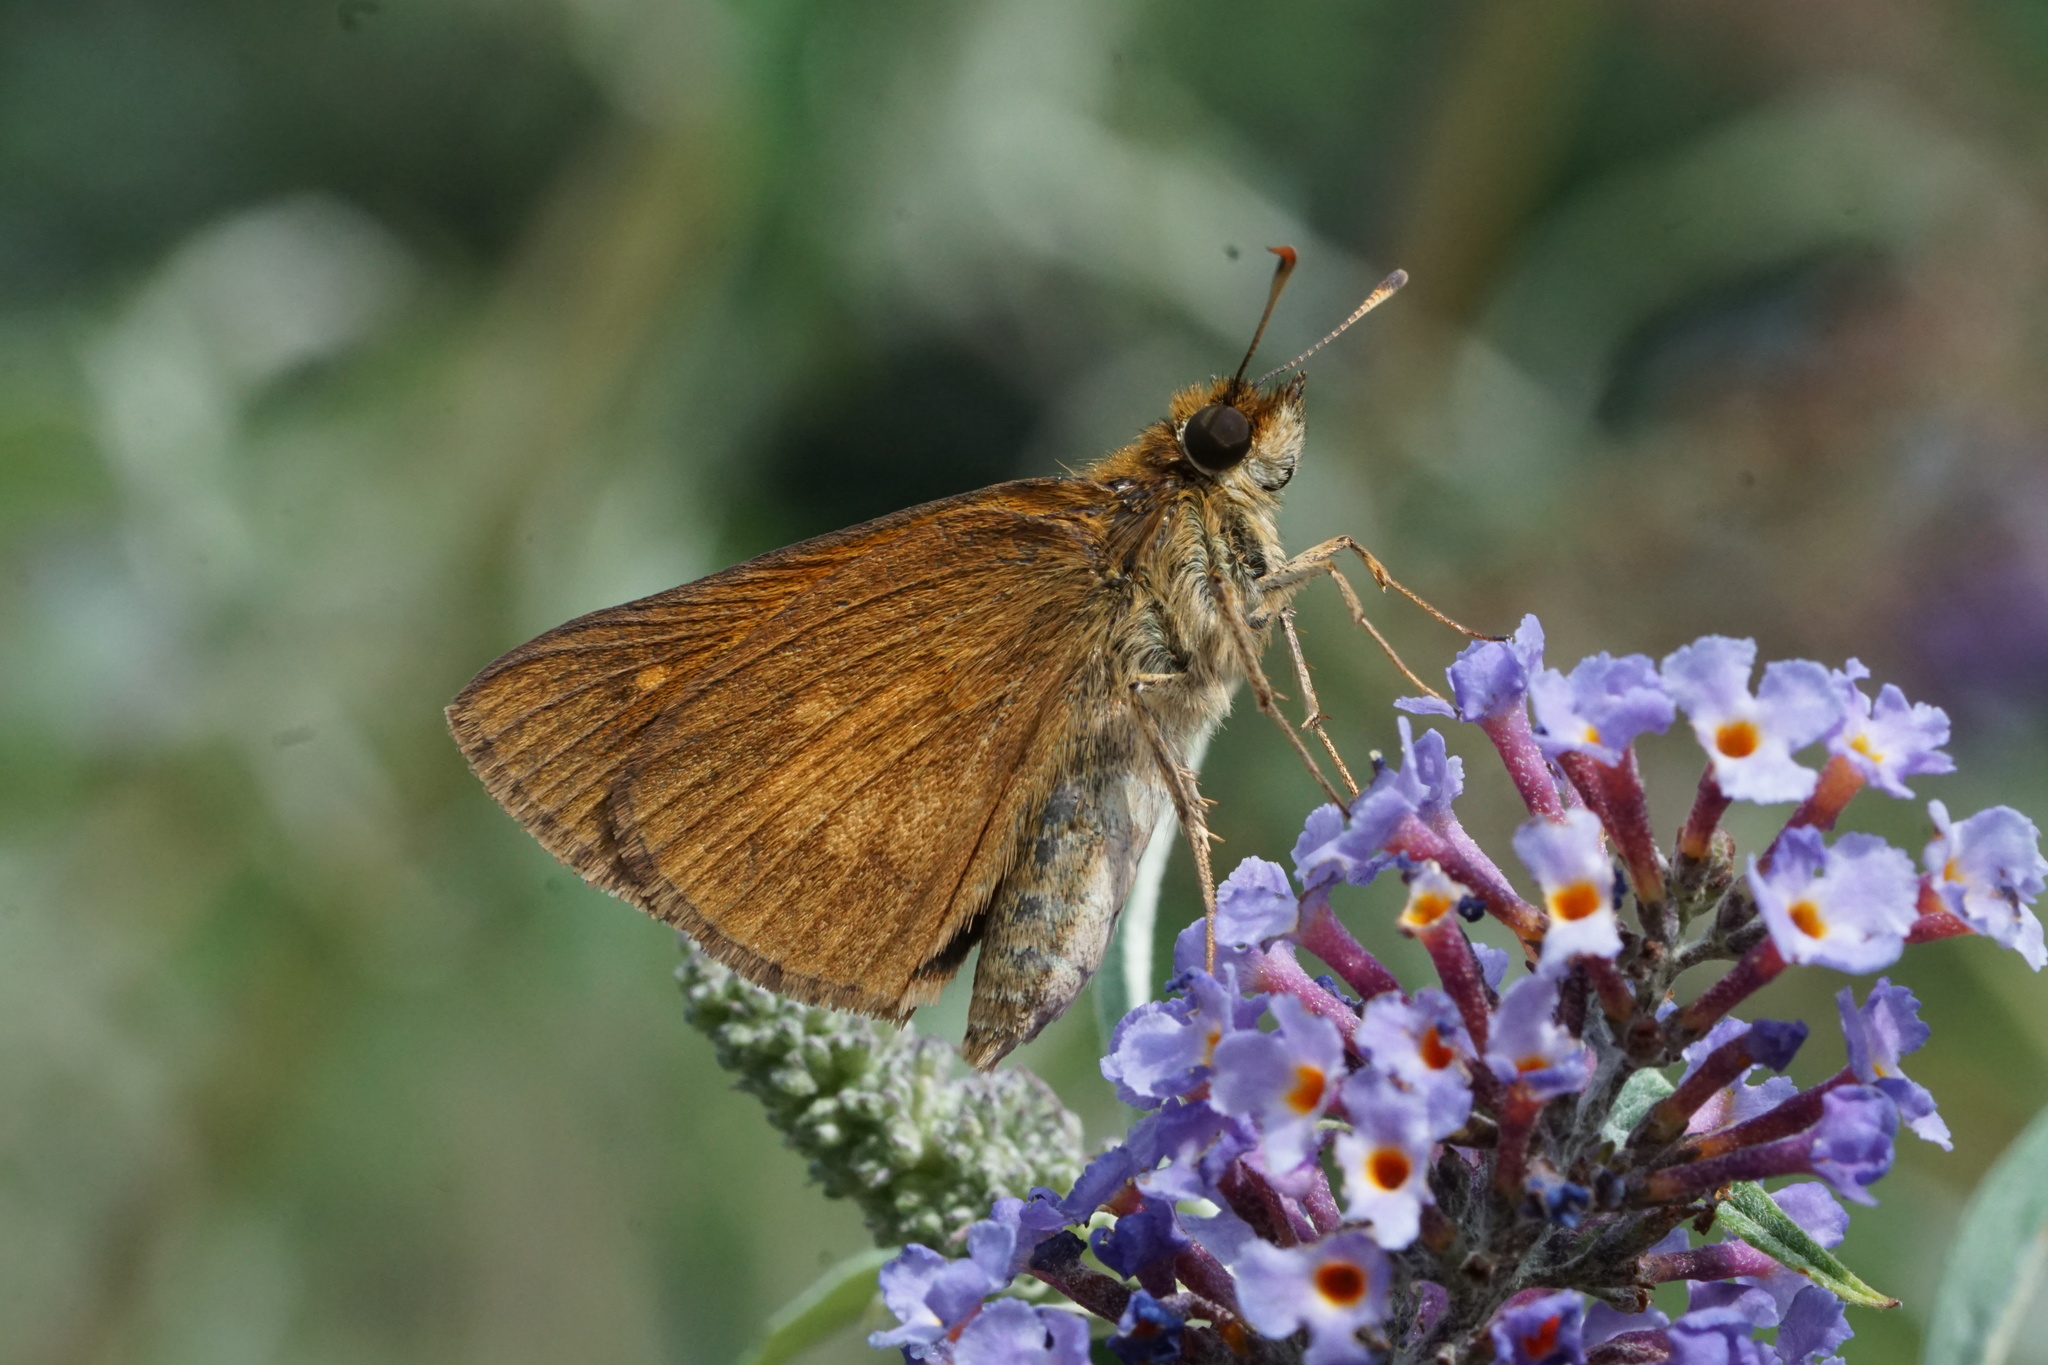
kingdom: Animalia
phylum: Arthropoda
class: Insecta
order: Lepidoptera
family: Hesperiidae
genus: Poanes
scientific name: Poanes viator
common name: Broad-winged skipper
